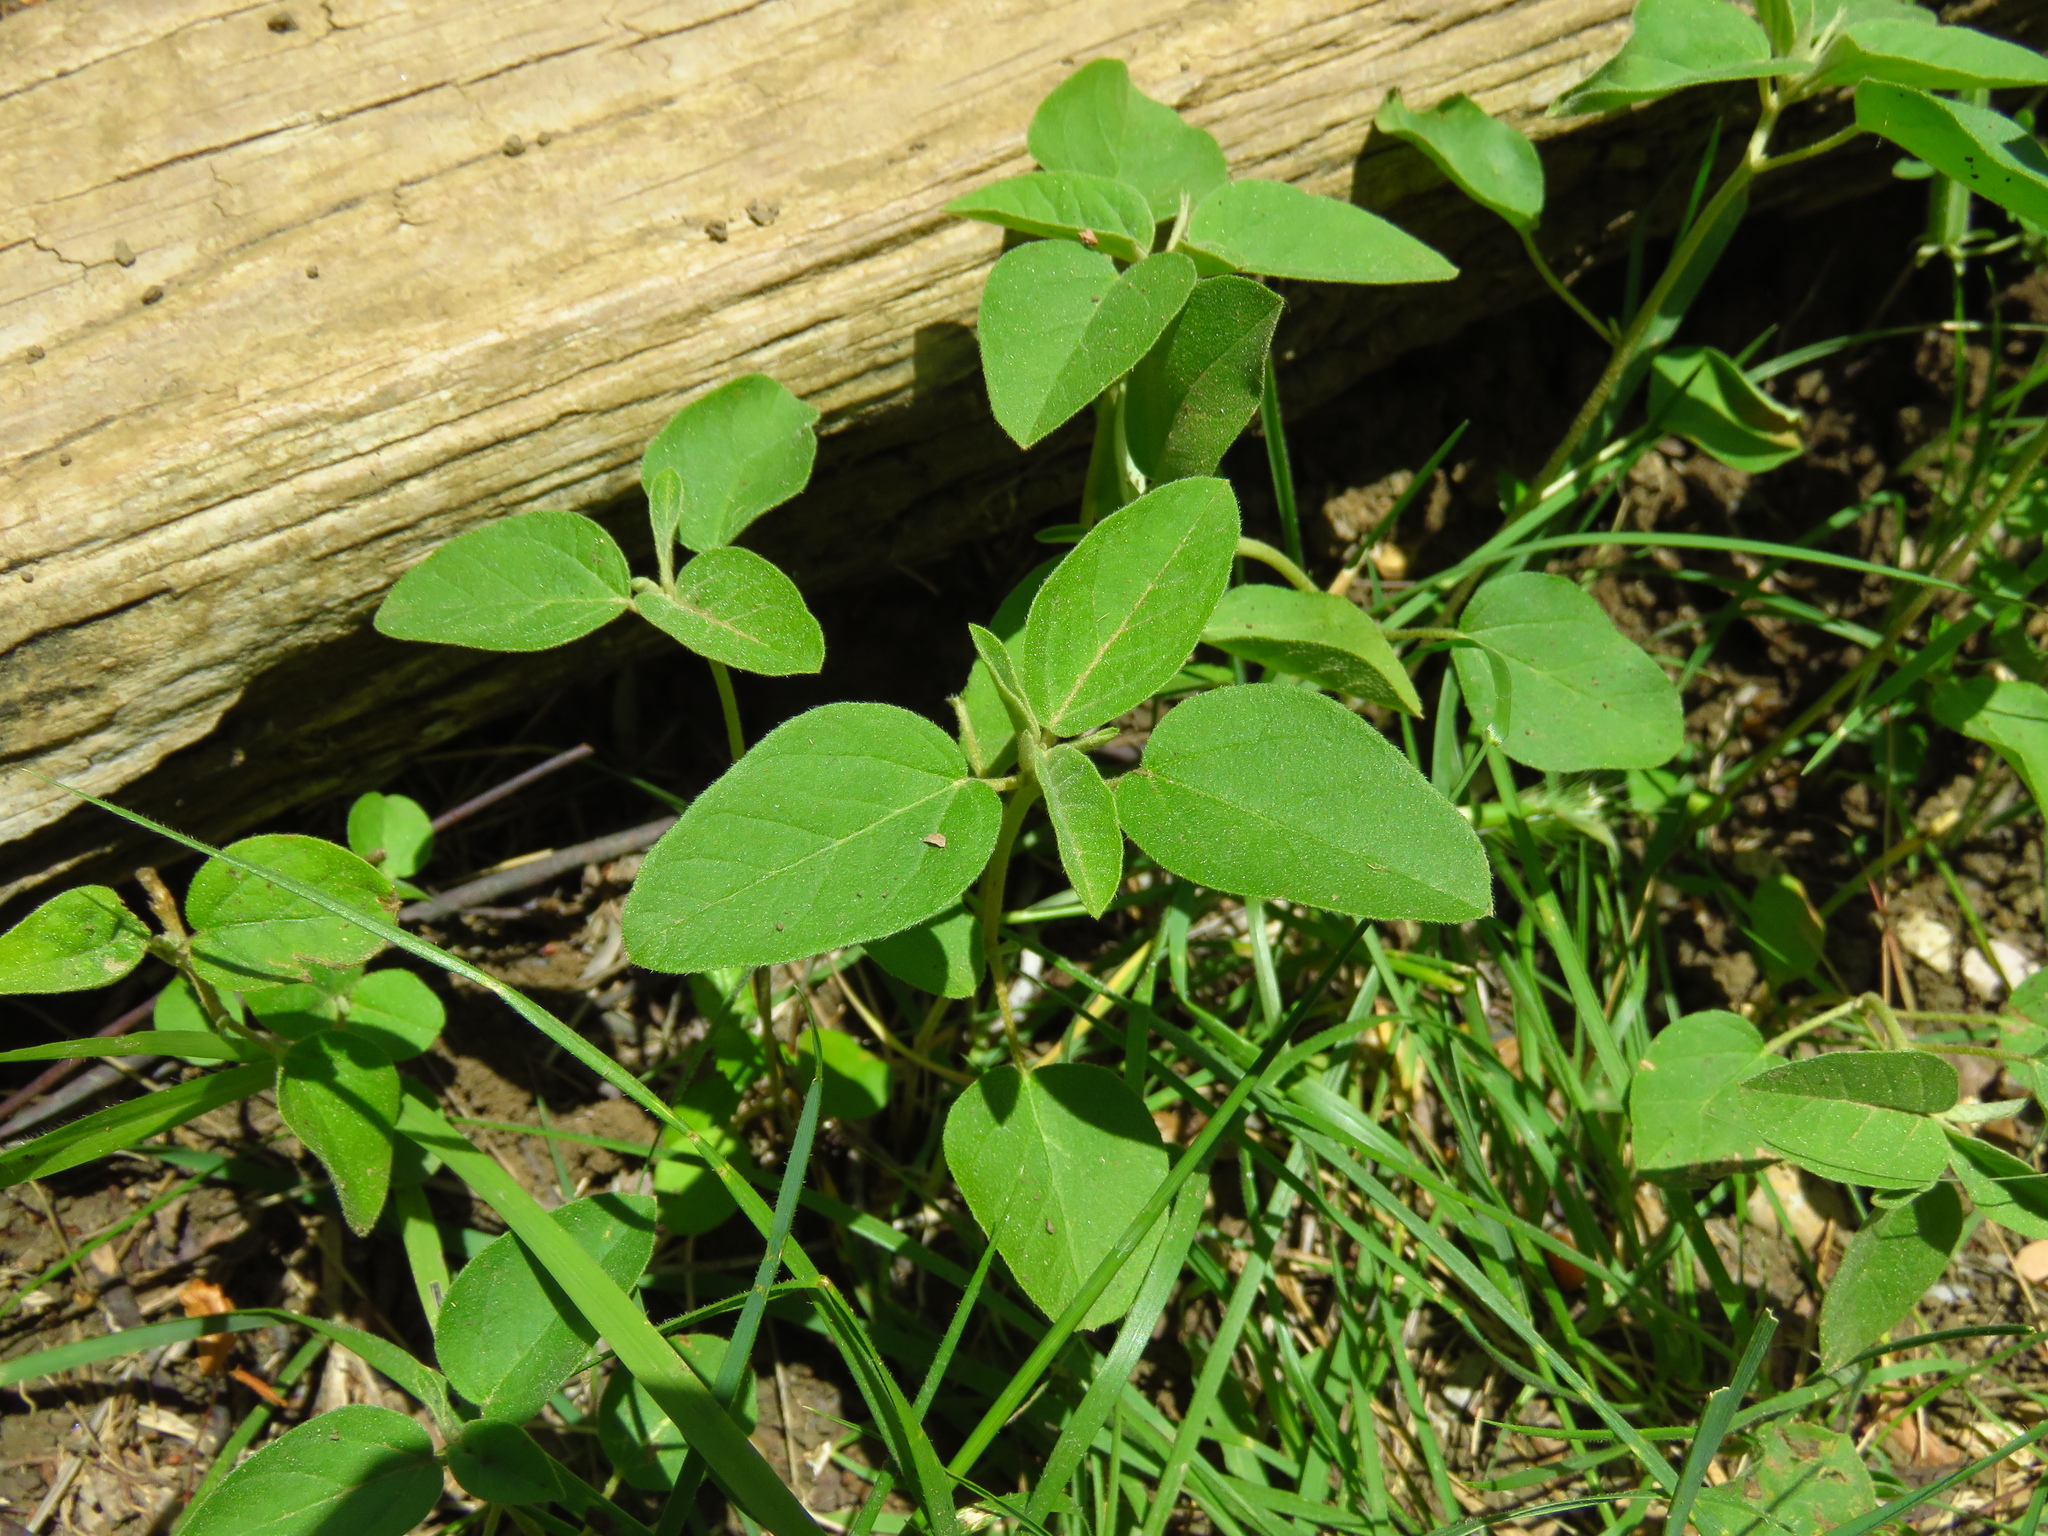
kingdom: Plantae
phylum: Tracheophyta
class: Magnoliopsida
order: Malpighiales
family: Euphorbiaceae
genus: Croton
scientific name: Croton monanthogynus
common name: One-seed croton
